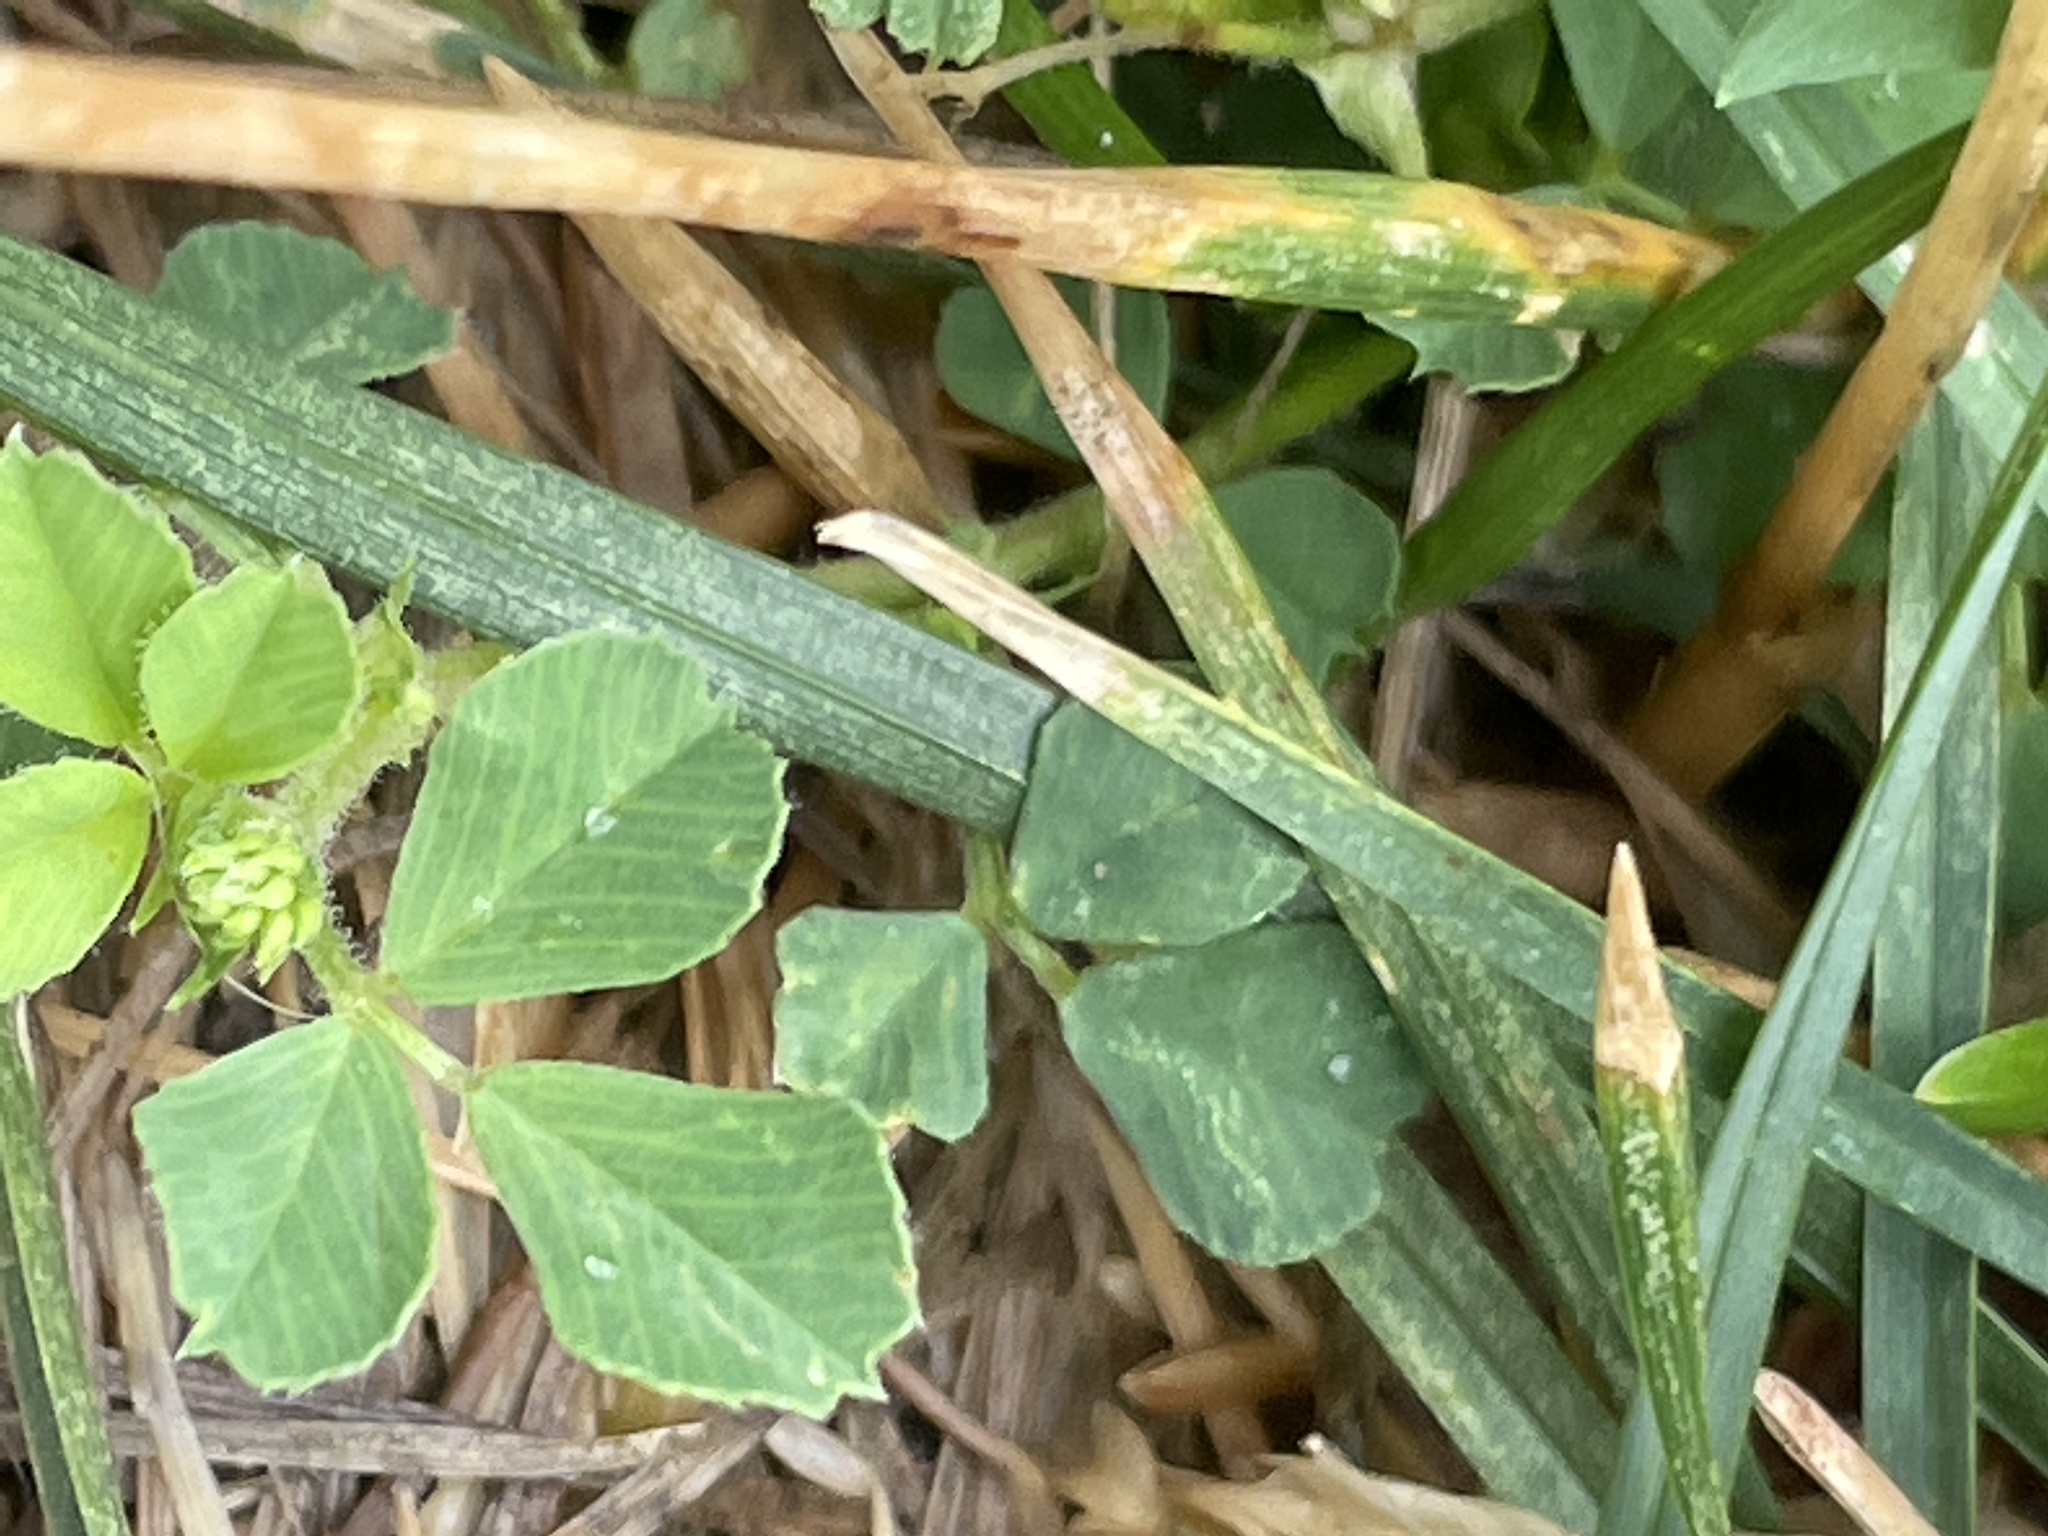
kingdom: Plantae
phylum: Tracheophyta
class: Magnoliopsida
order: Fabales
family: Fabaceae
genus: Medicago
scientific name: Medicago lupulina
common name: Black medick
